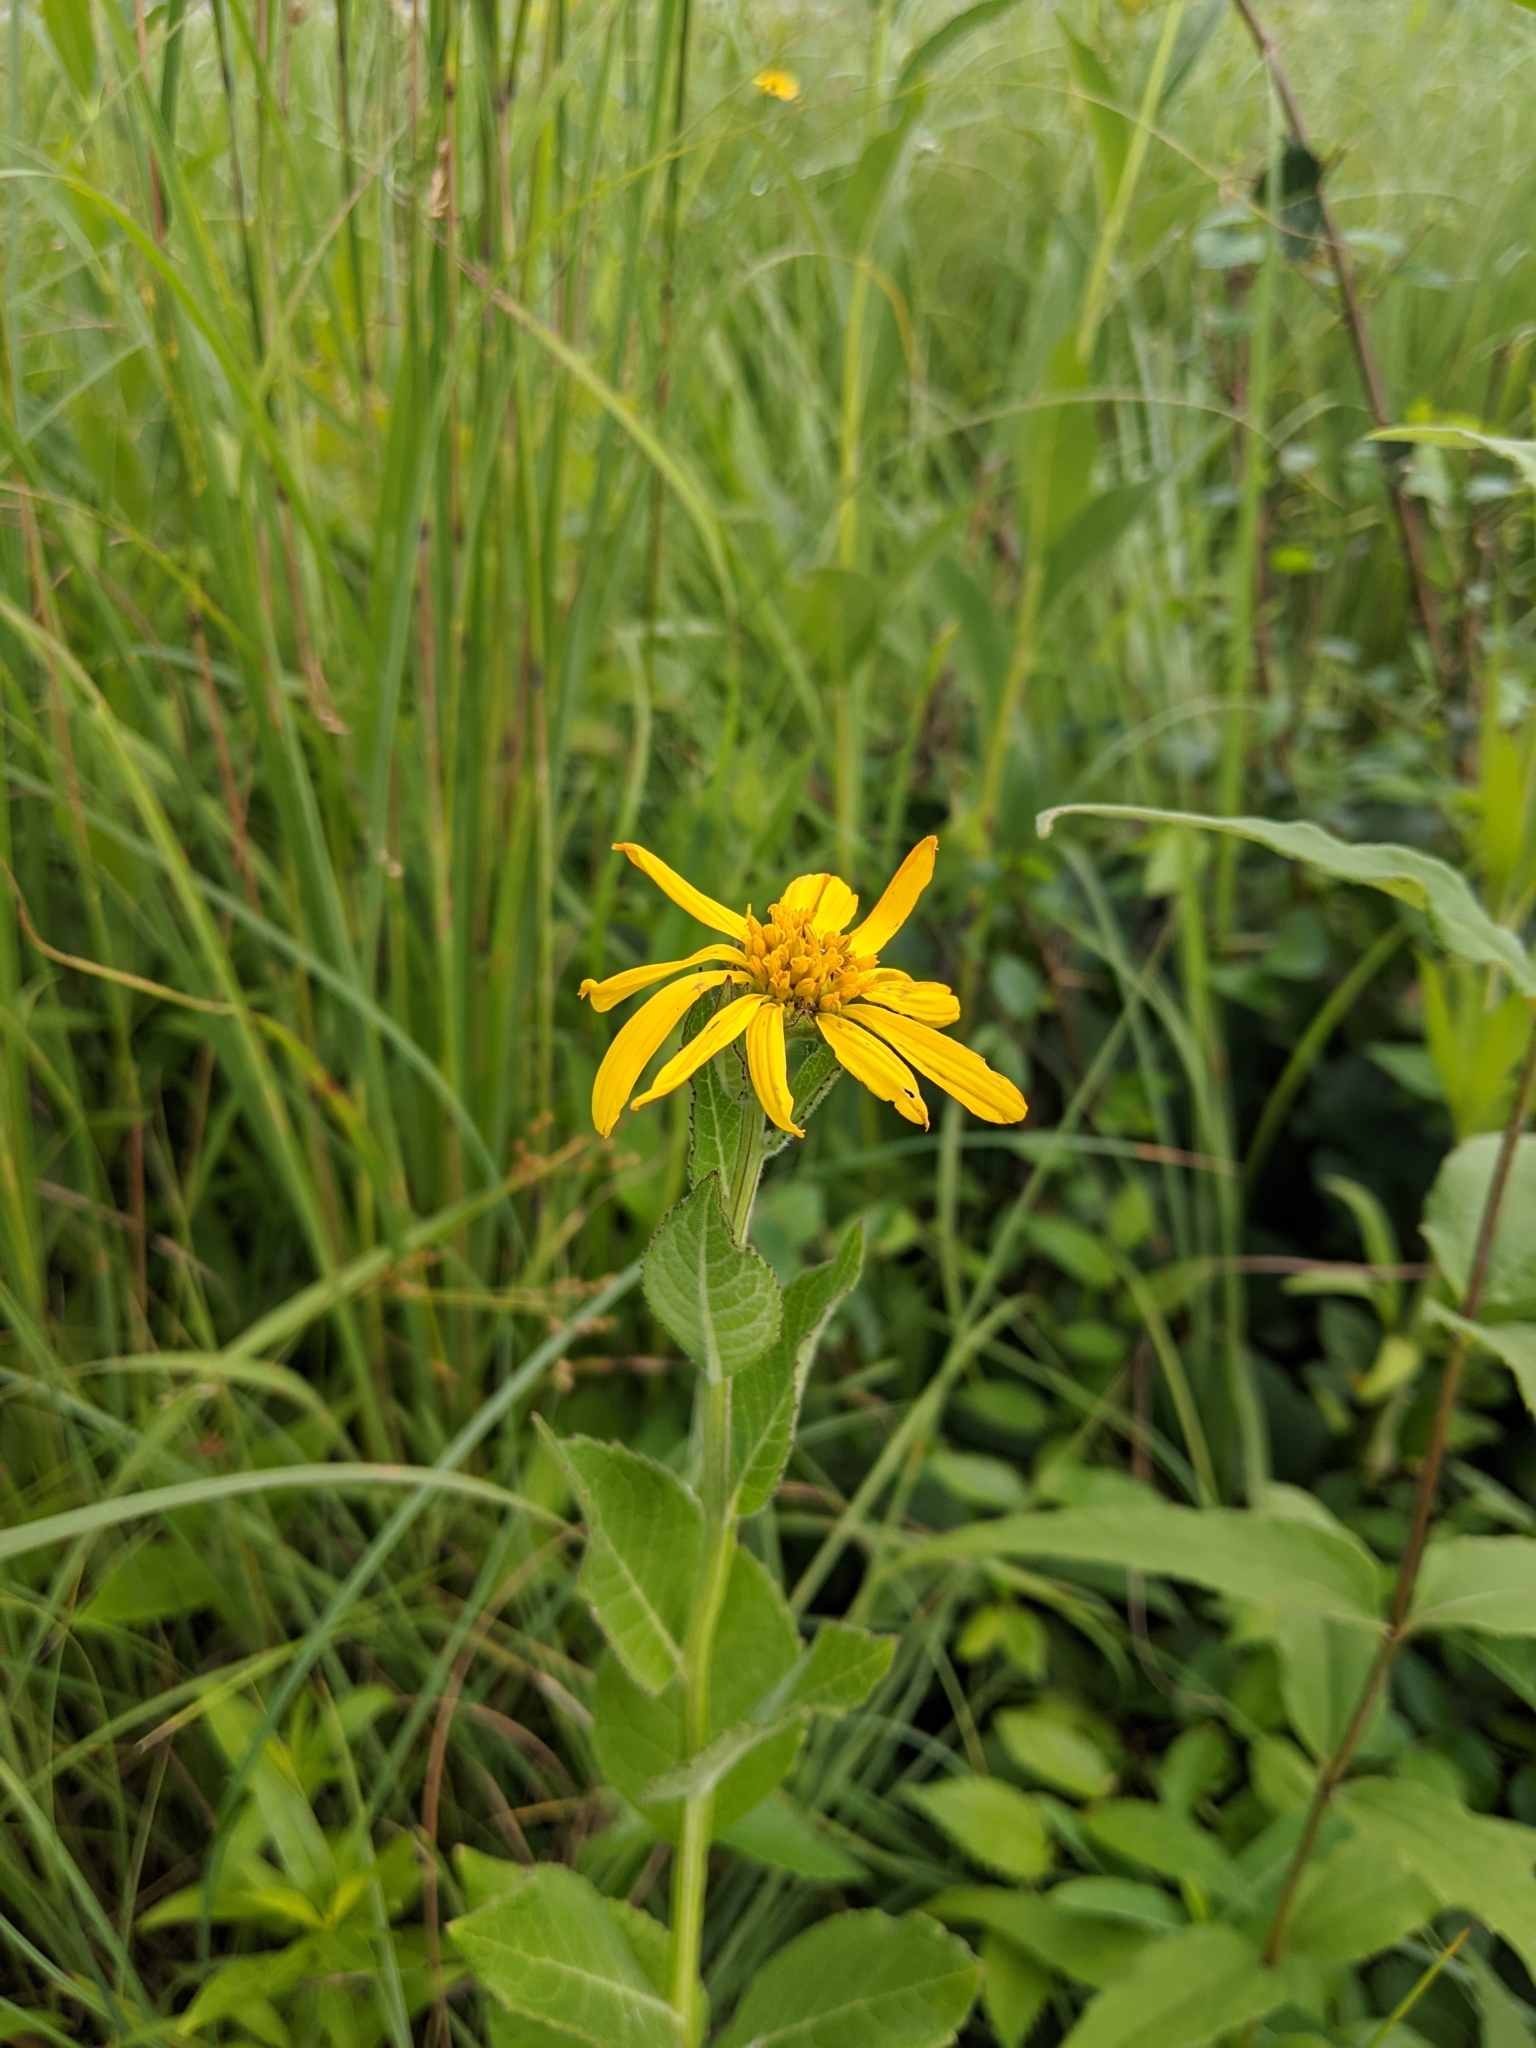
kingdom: Plantae
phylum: Tracheophyta
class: Magnoliopsida
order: Asterales
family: Asteraceae
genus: Verbesina
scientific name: Verbesina helianthoides
